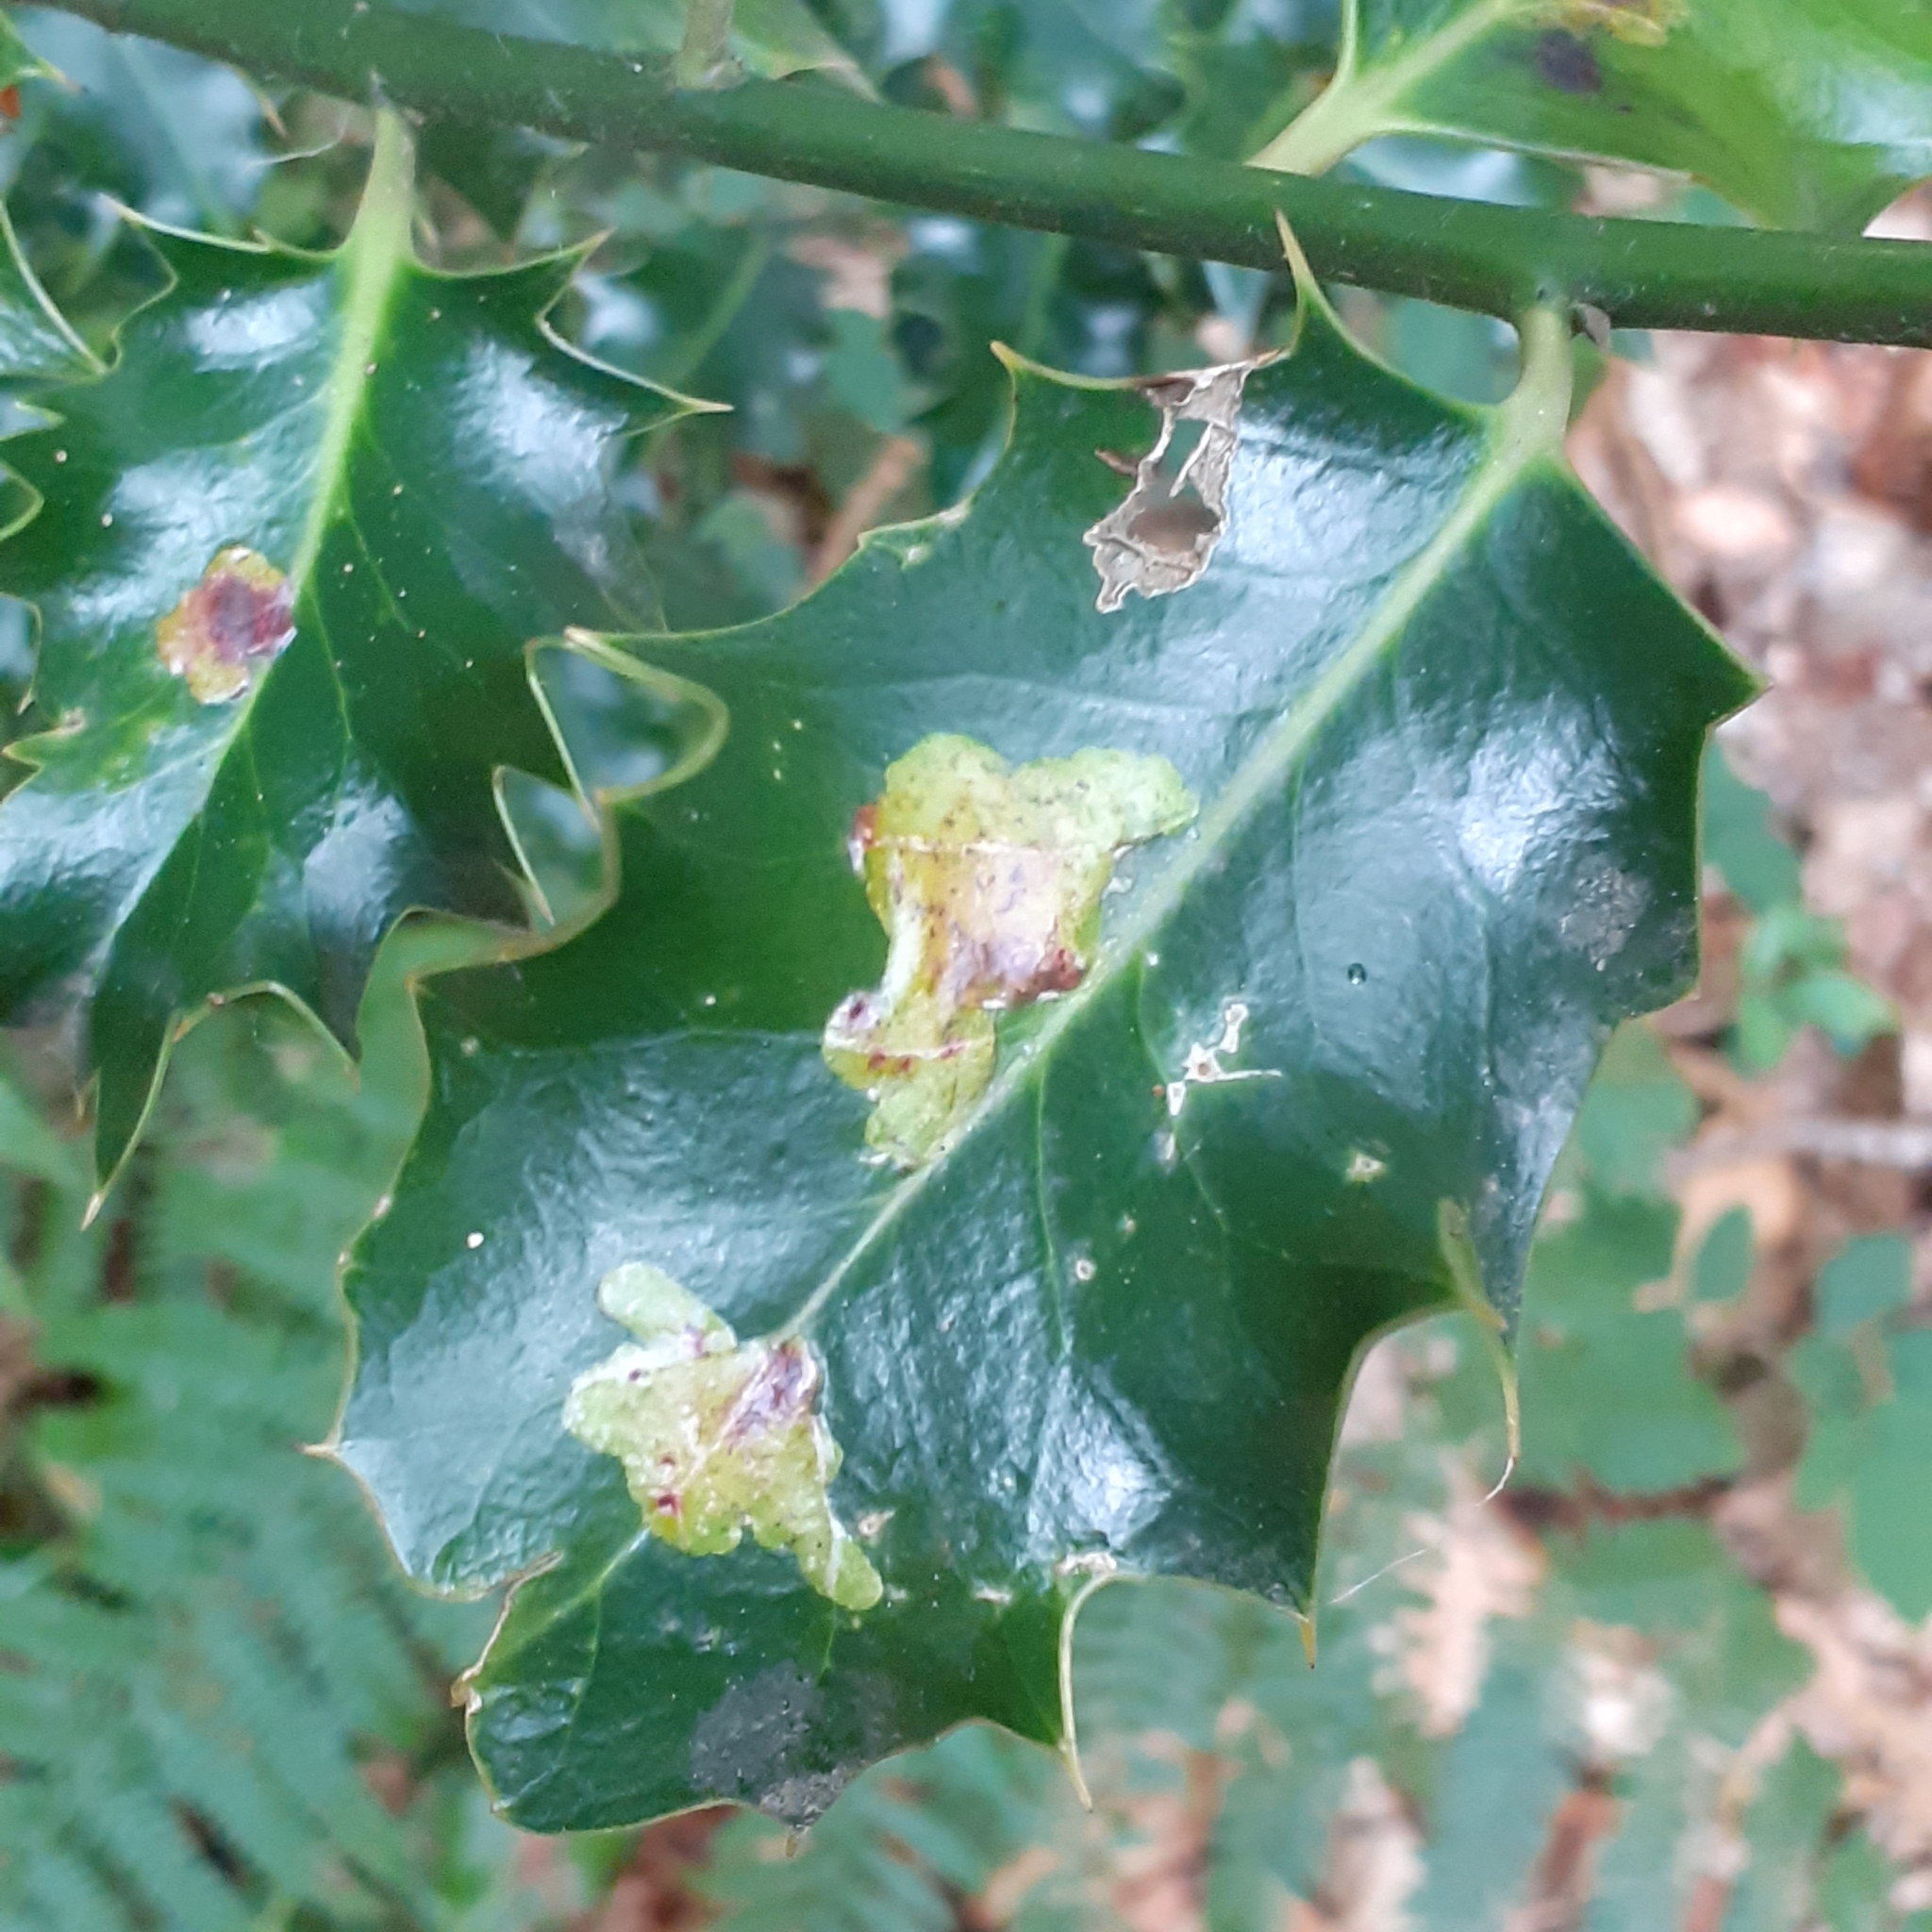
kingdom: Animalia
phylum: Arthropoda
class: Insecta
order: Diptera
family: Agromyzidae
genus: Phytomyza
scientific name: Phytomyza ilicis
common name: Holly leafminer
